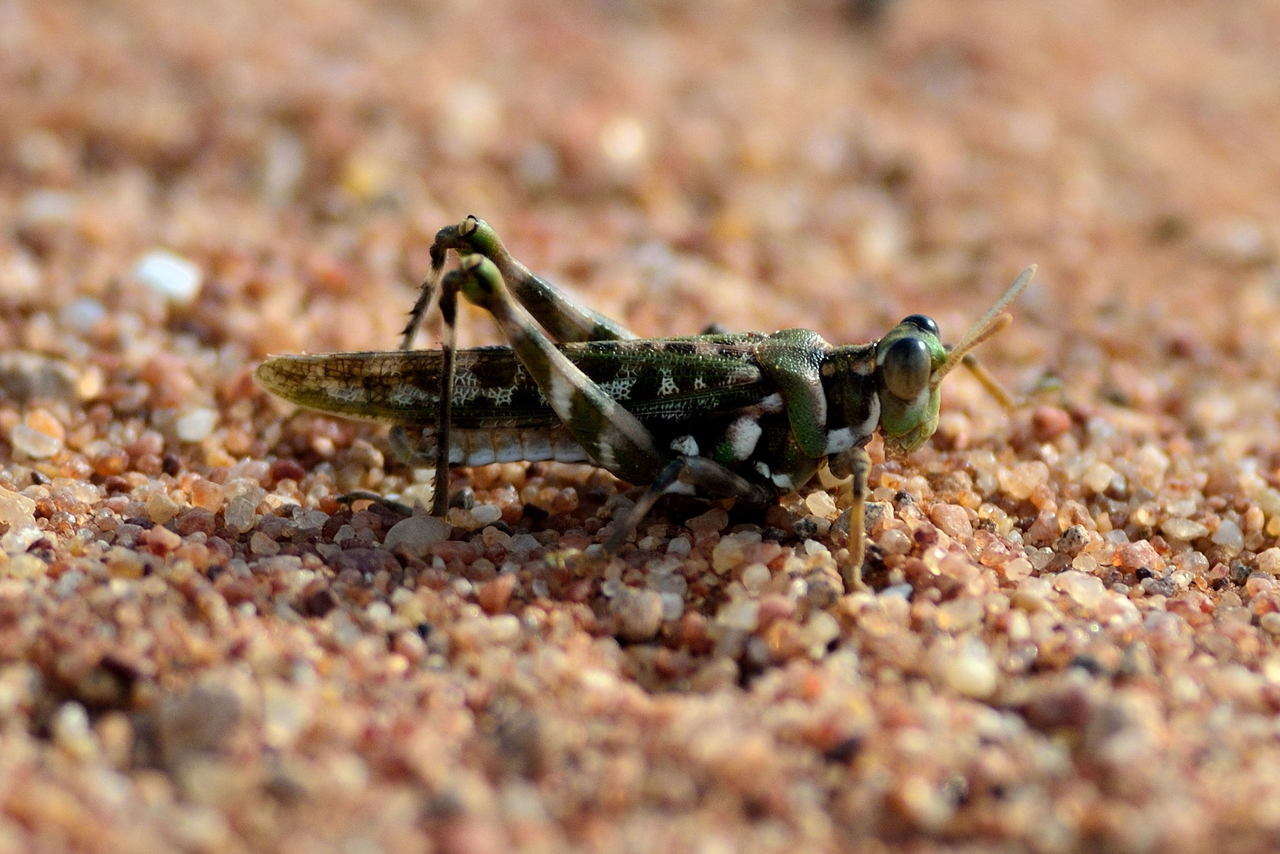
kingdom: Animalia
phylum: Arthropoda
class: Insecta
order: Orthoptera
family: Acrididae
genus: Scurra
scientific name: Scurra marmoralis
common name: Crepitating spurthroat
